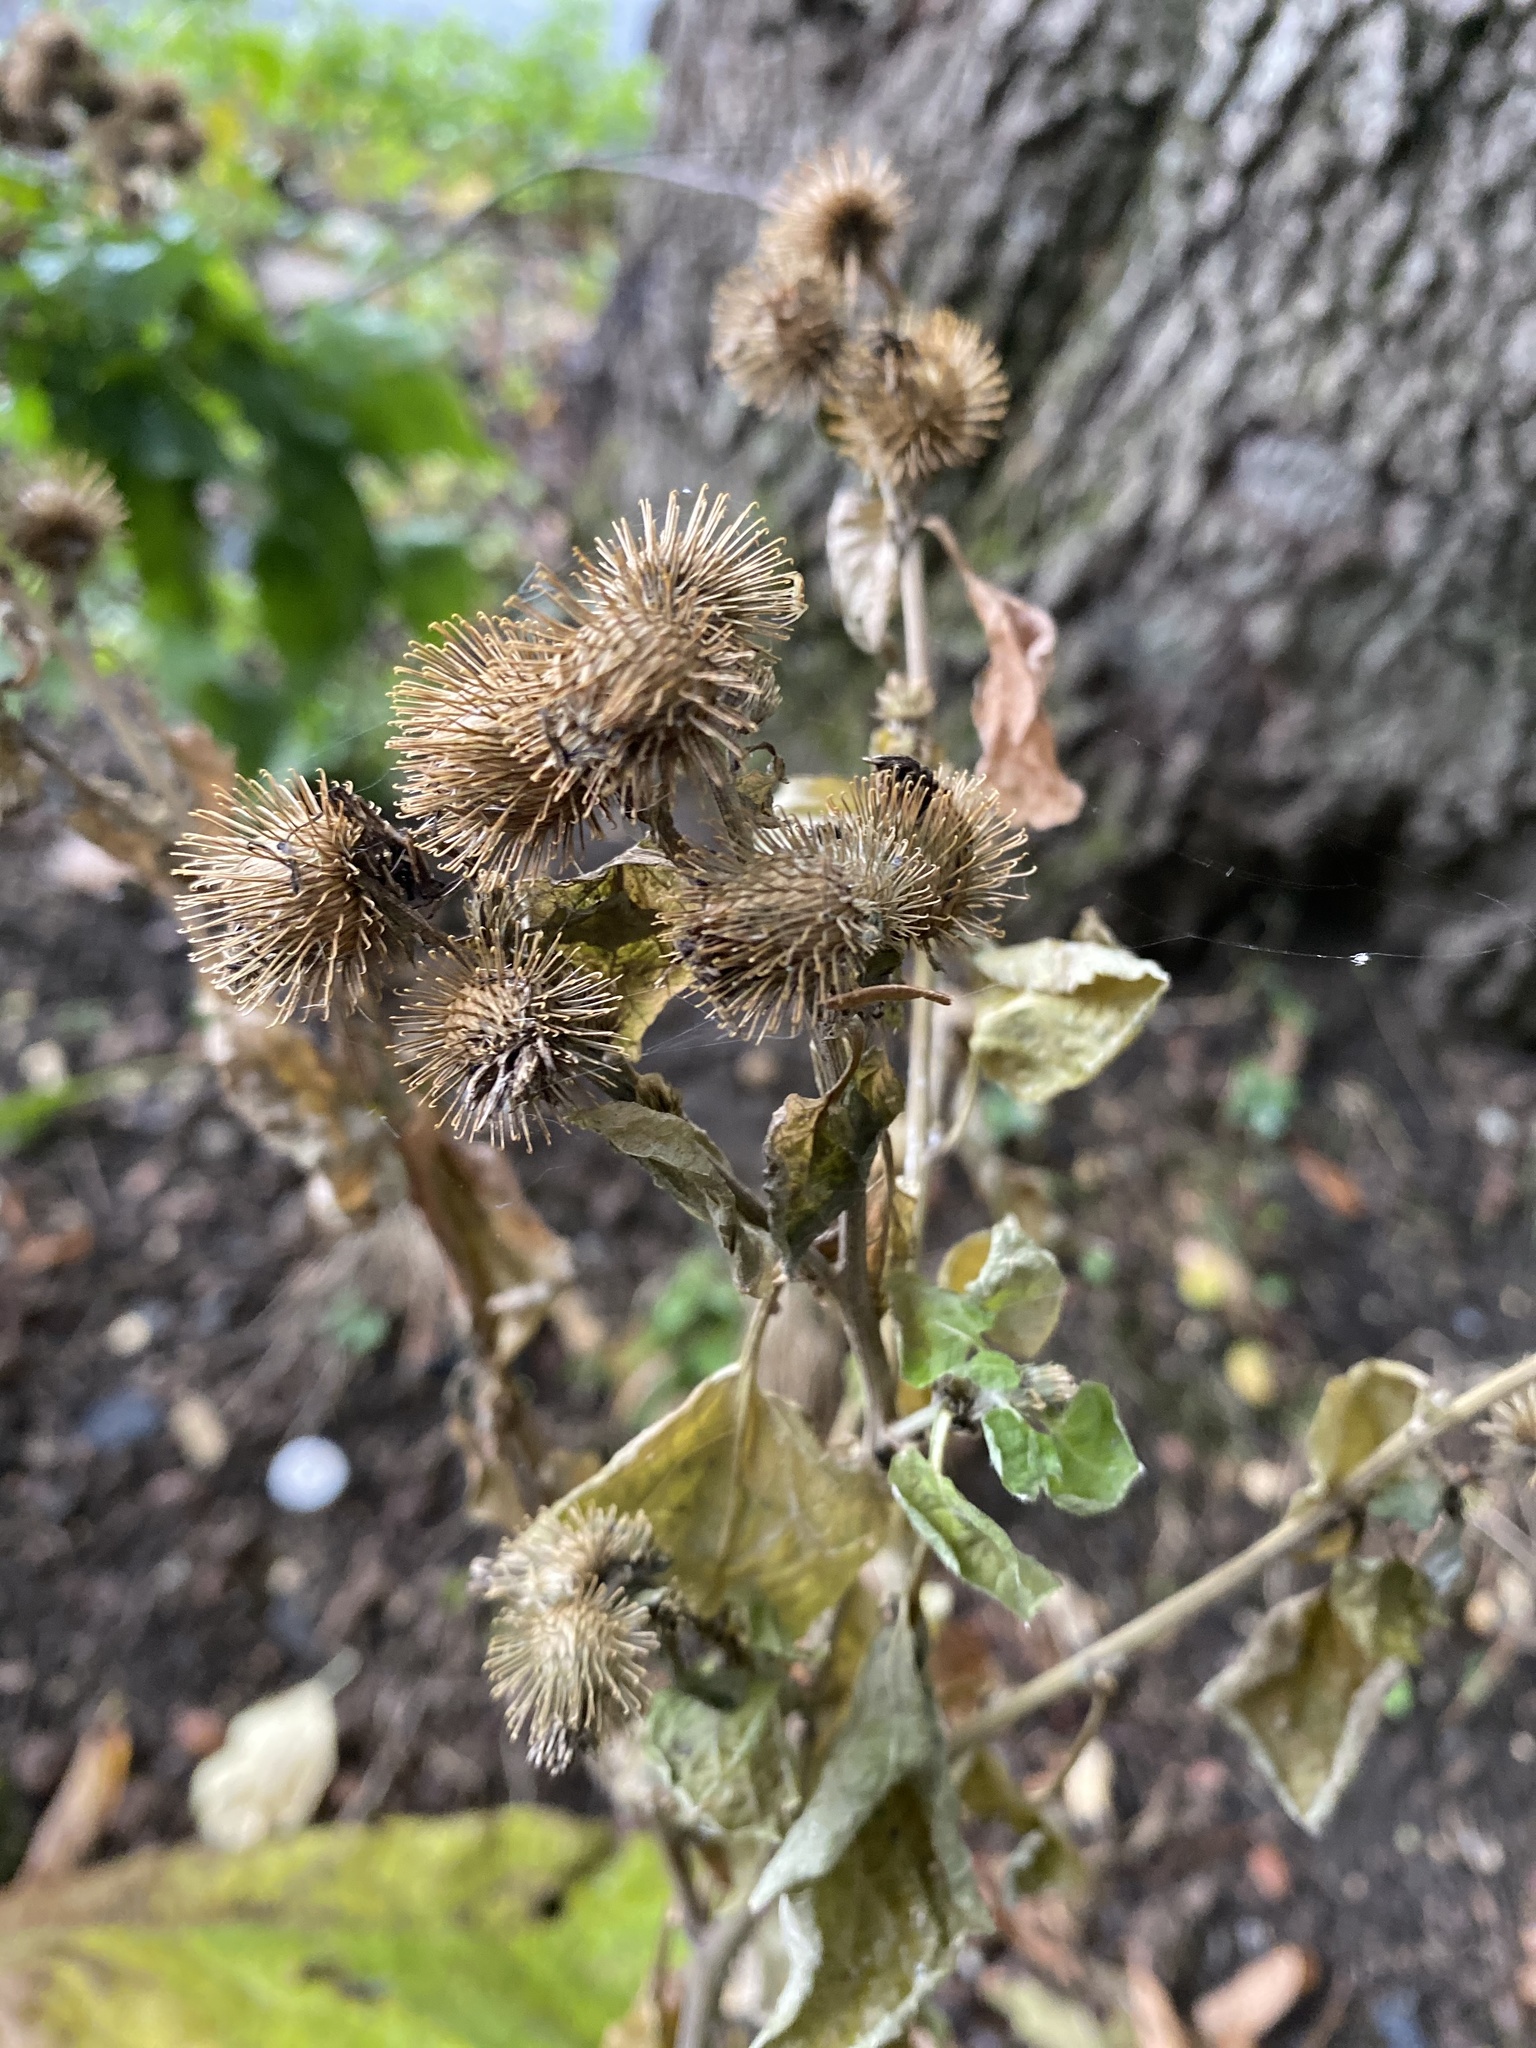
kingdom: Plantae
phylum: Tracheophyta
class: Magnoliopsida
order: Asterales
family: Asteraceae
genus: Arctium
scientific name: Arctium minus
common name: Lesser burdock
